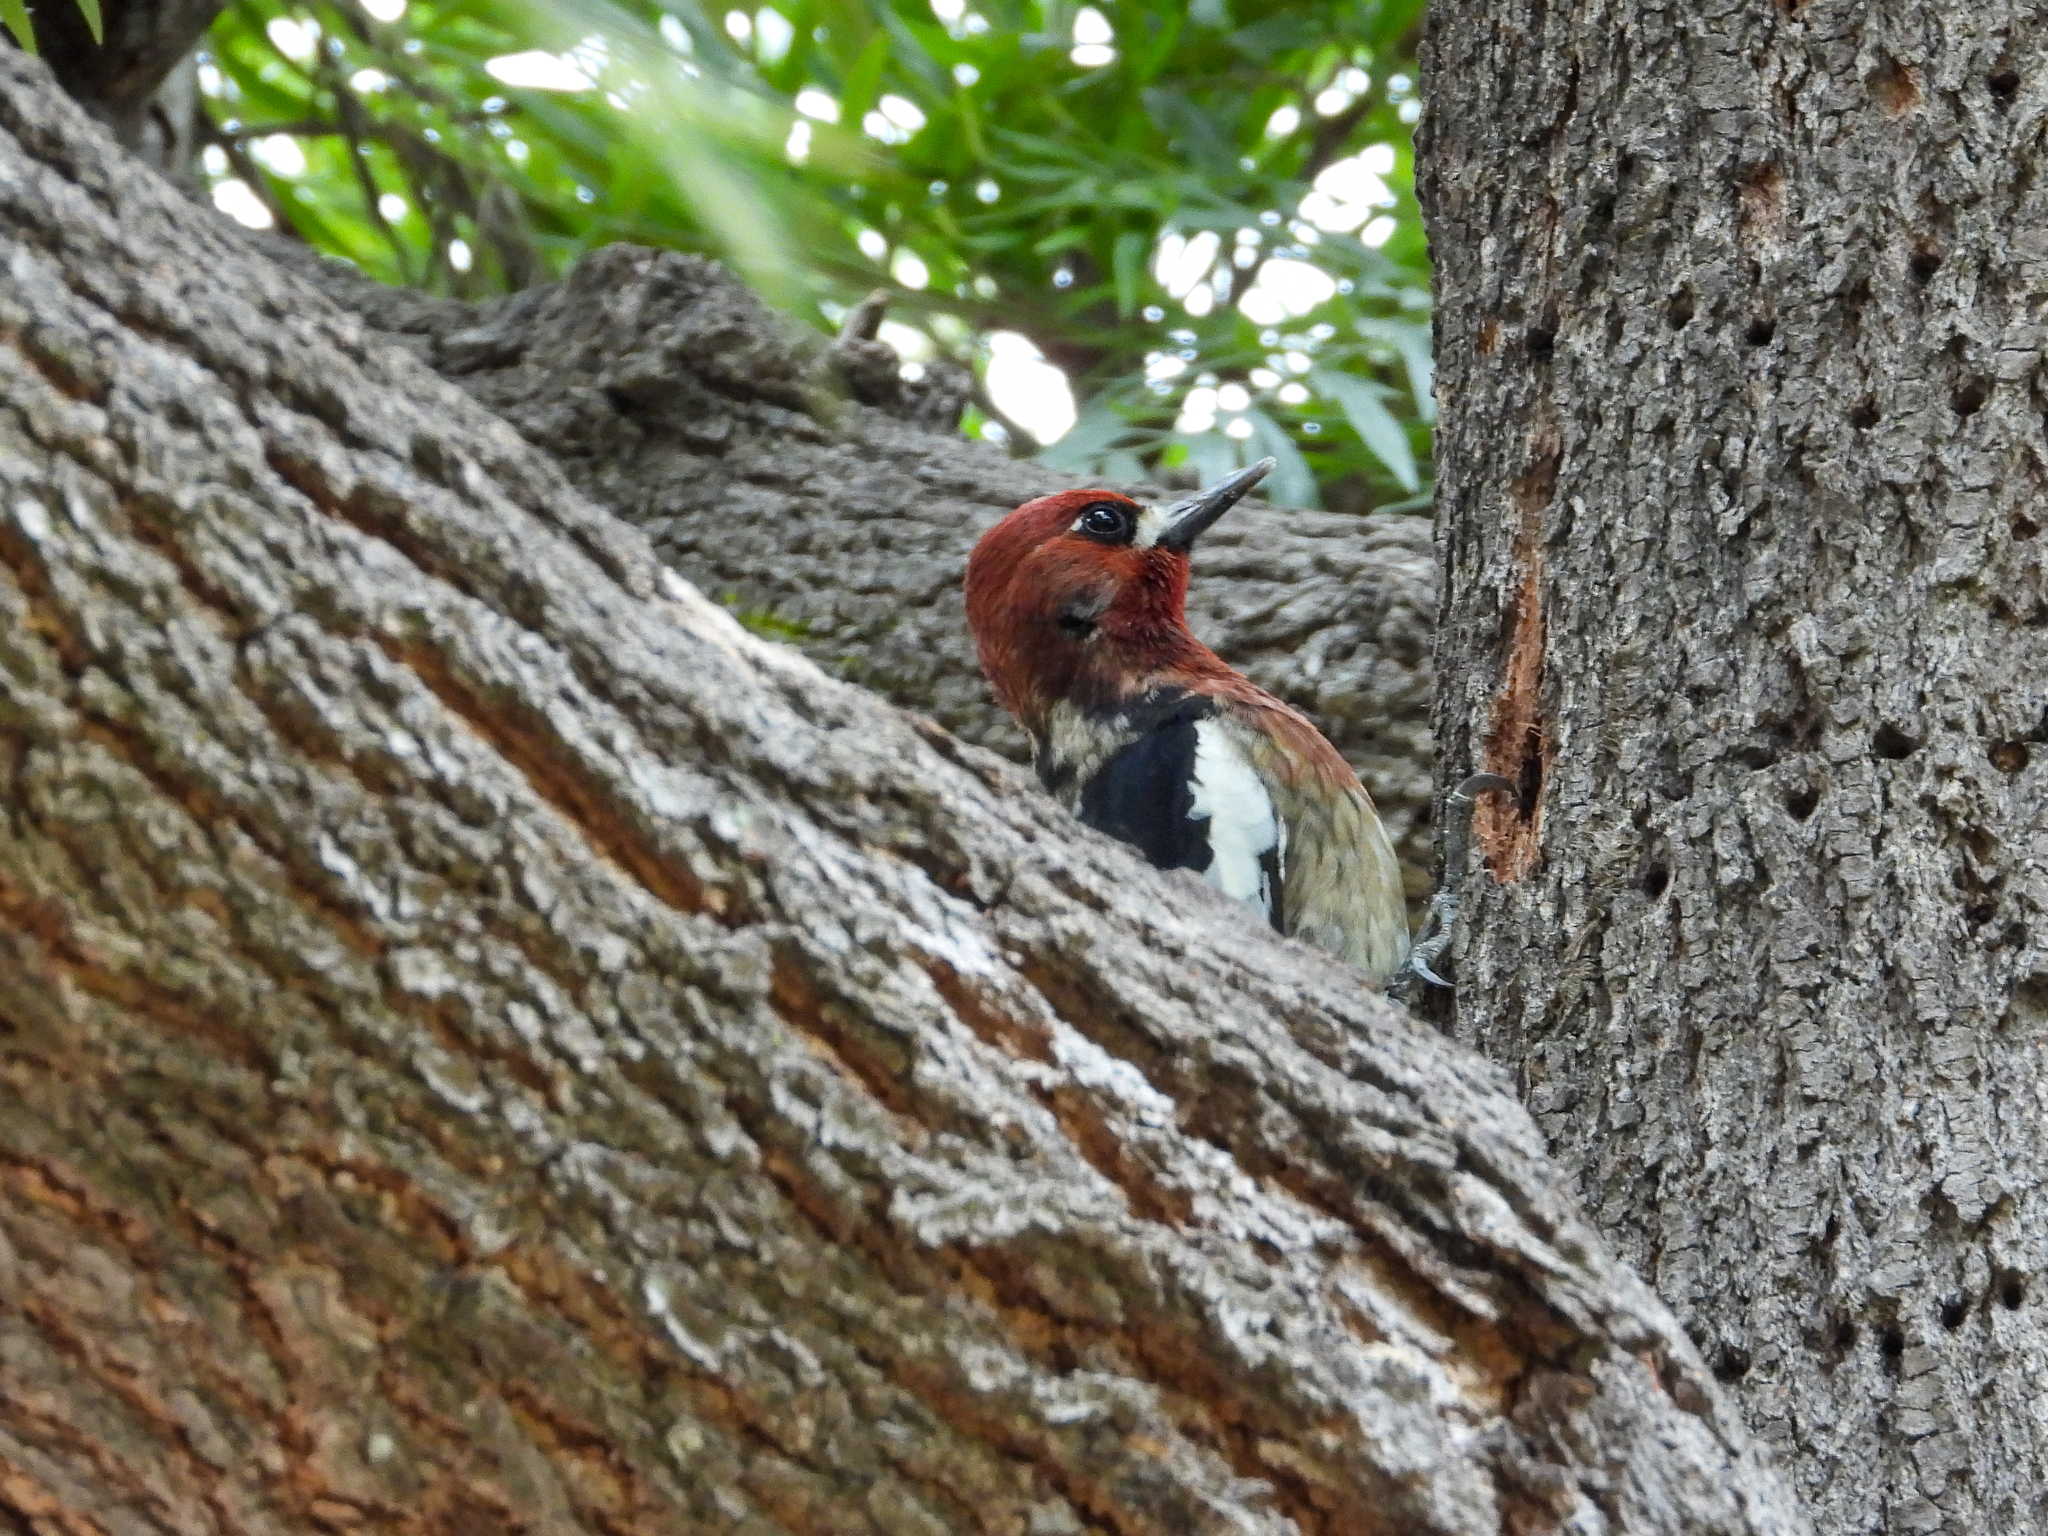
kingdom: Animalia
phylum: Chordata
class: Aves
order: Piciformes
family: Picidae
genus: Sphyrapicus
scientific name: Sphyrapicus ruber
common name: Red-breasted sapsucker
